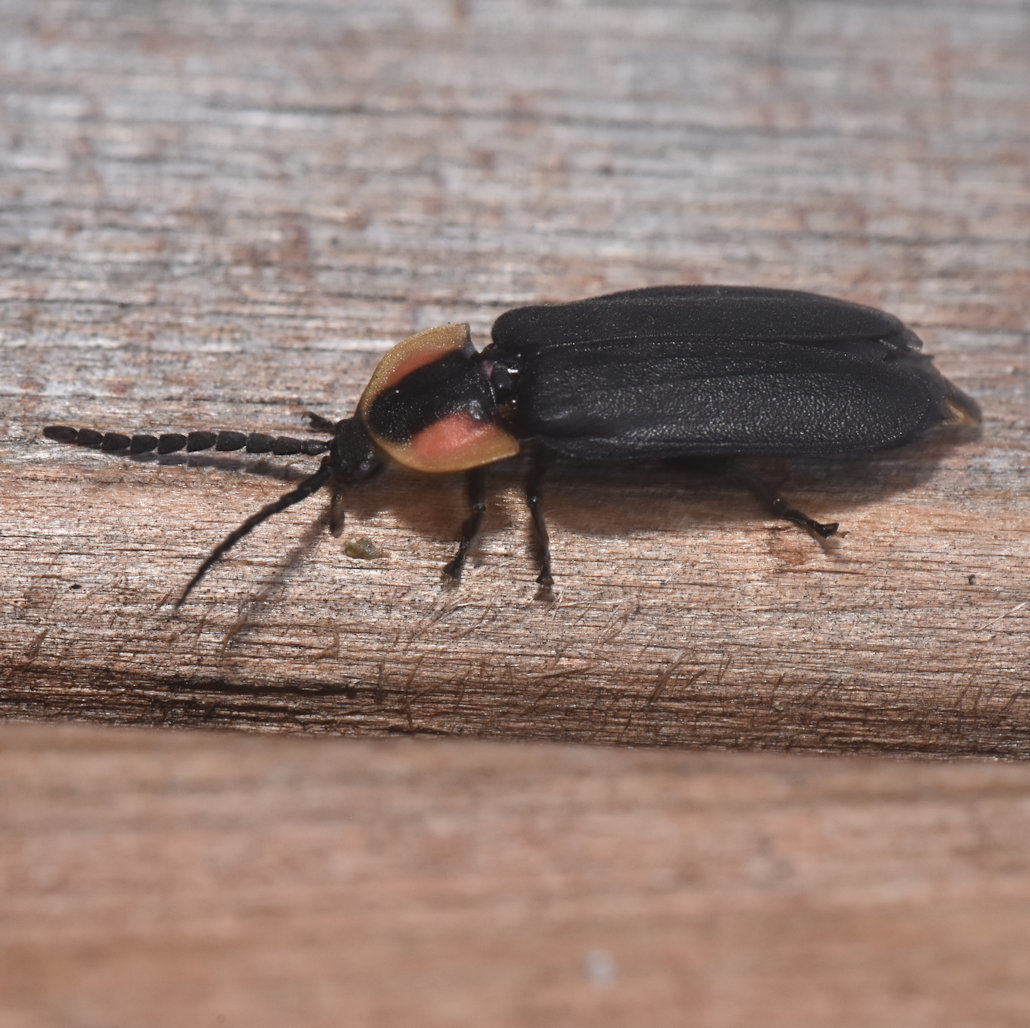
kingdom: Animalia
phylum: Arthropoda
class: Insecta
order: Coleoptera
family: Lampyridae
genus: Lucidota
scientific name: Lucidota atra
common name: Black firefly
